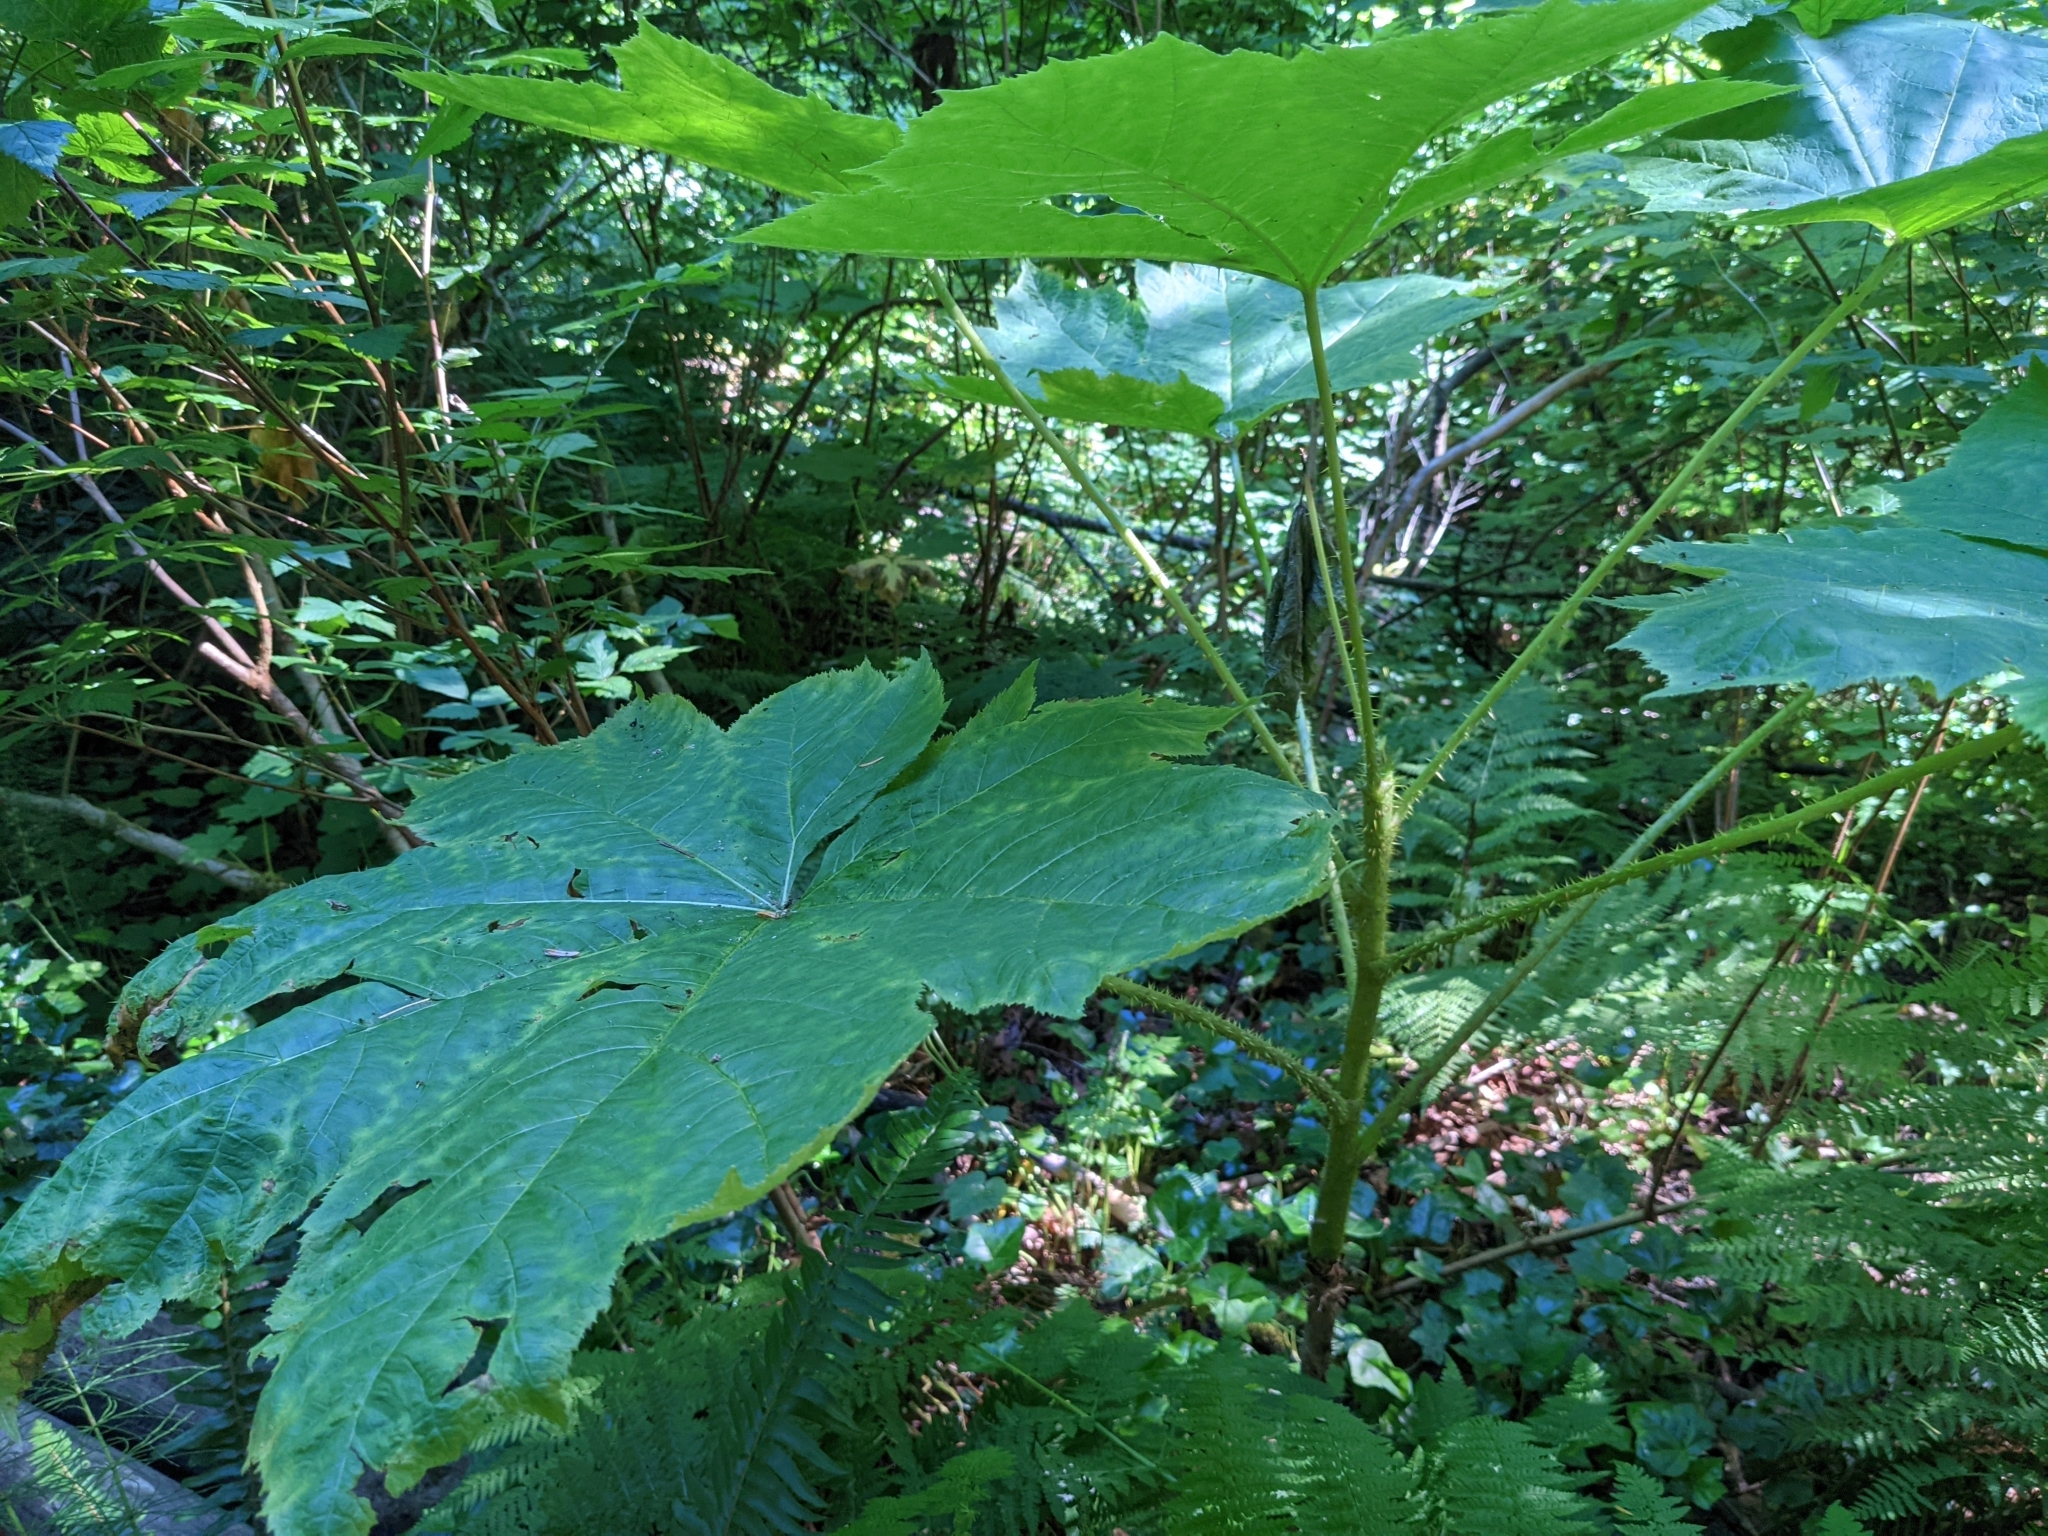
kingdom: Plantae
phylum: Tracheophyta
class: Magnoliopsida
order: Apiales
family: Araliaceae
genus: Oplopanax
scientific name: Oplopanax horridus
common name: Devil's walking-stick
